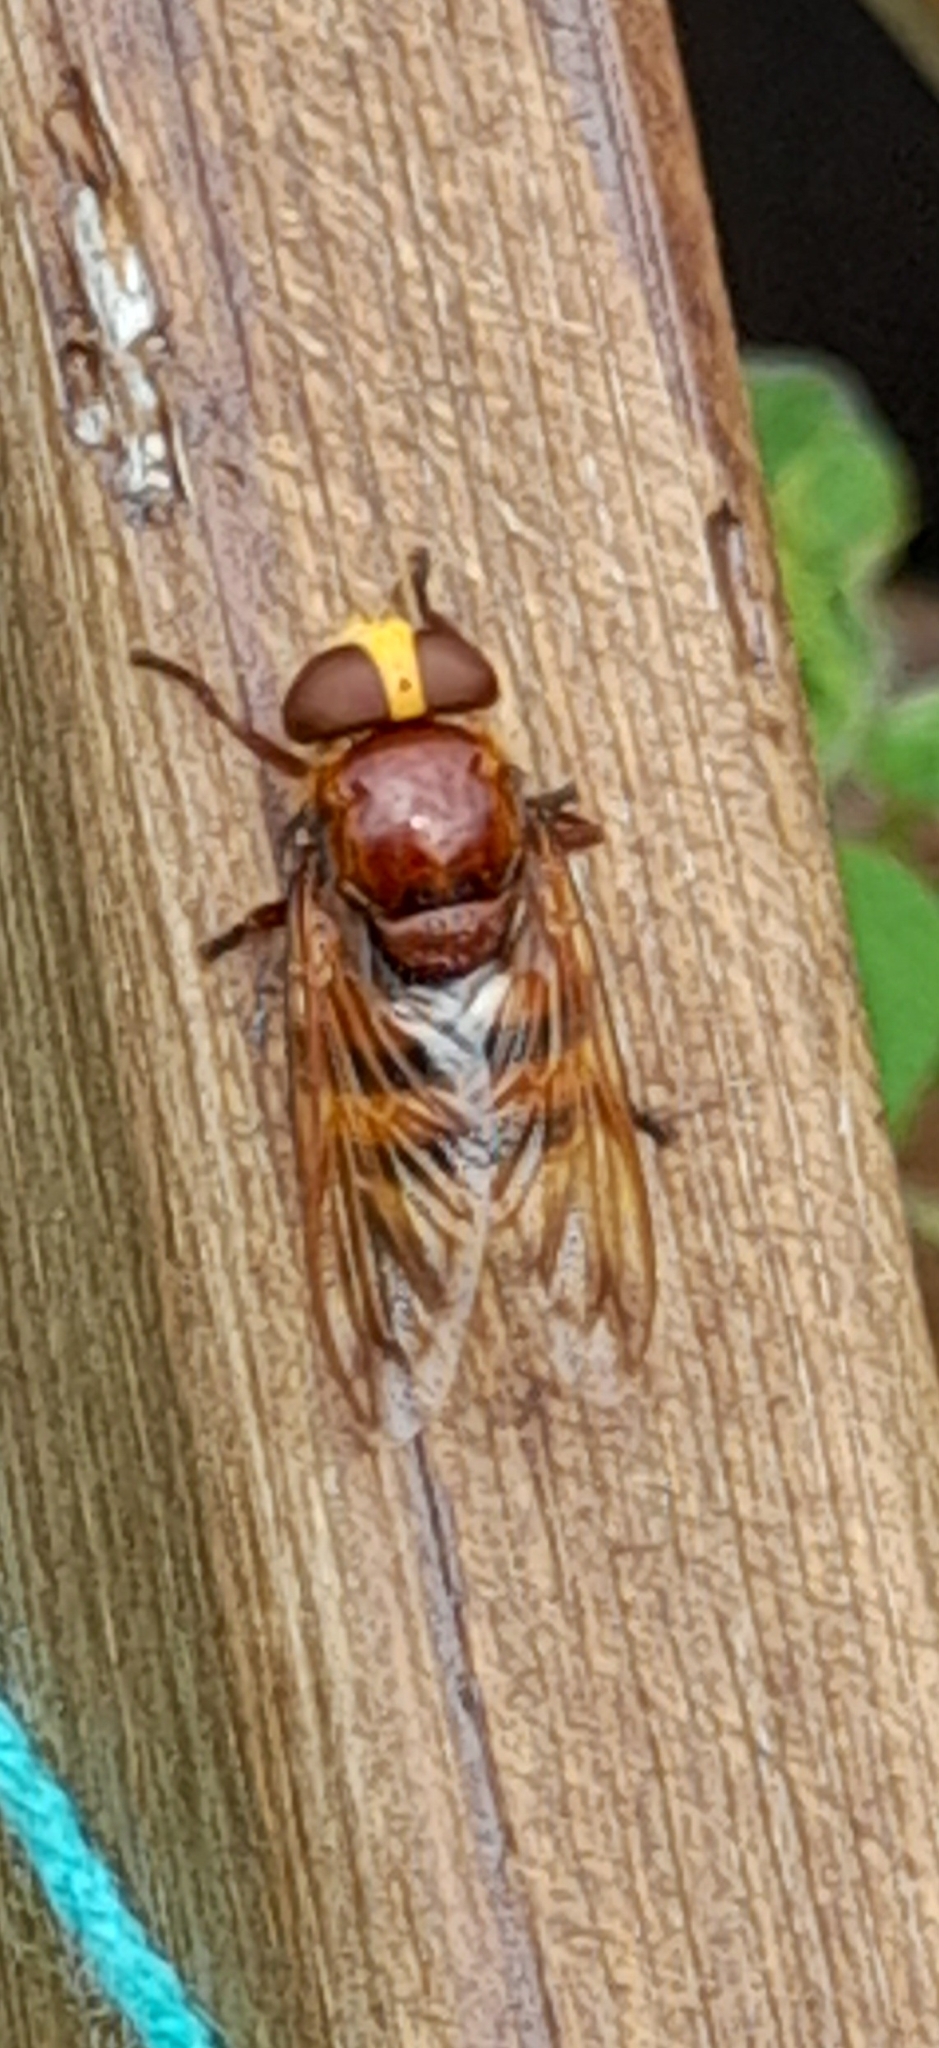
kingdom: Animalia
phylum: Arthropoda
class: Insecta
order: Diptera
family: Syrphidae
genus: Volucella
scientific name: Volucella zonaria
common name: Hornet hoverfly
